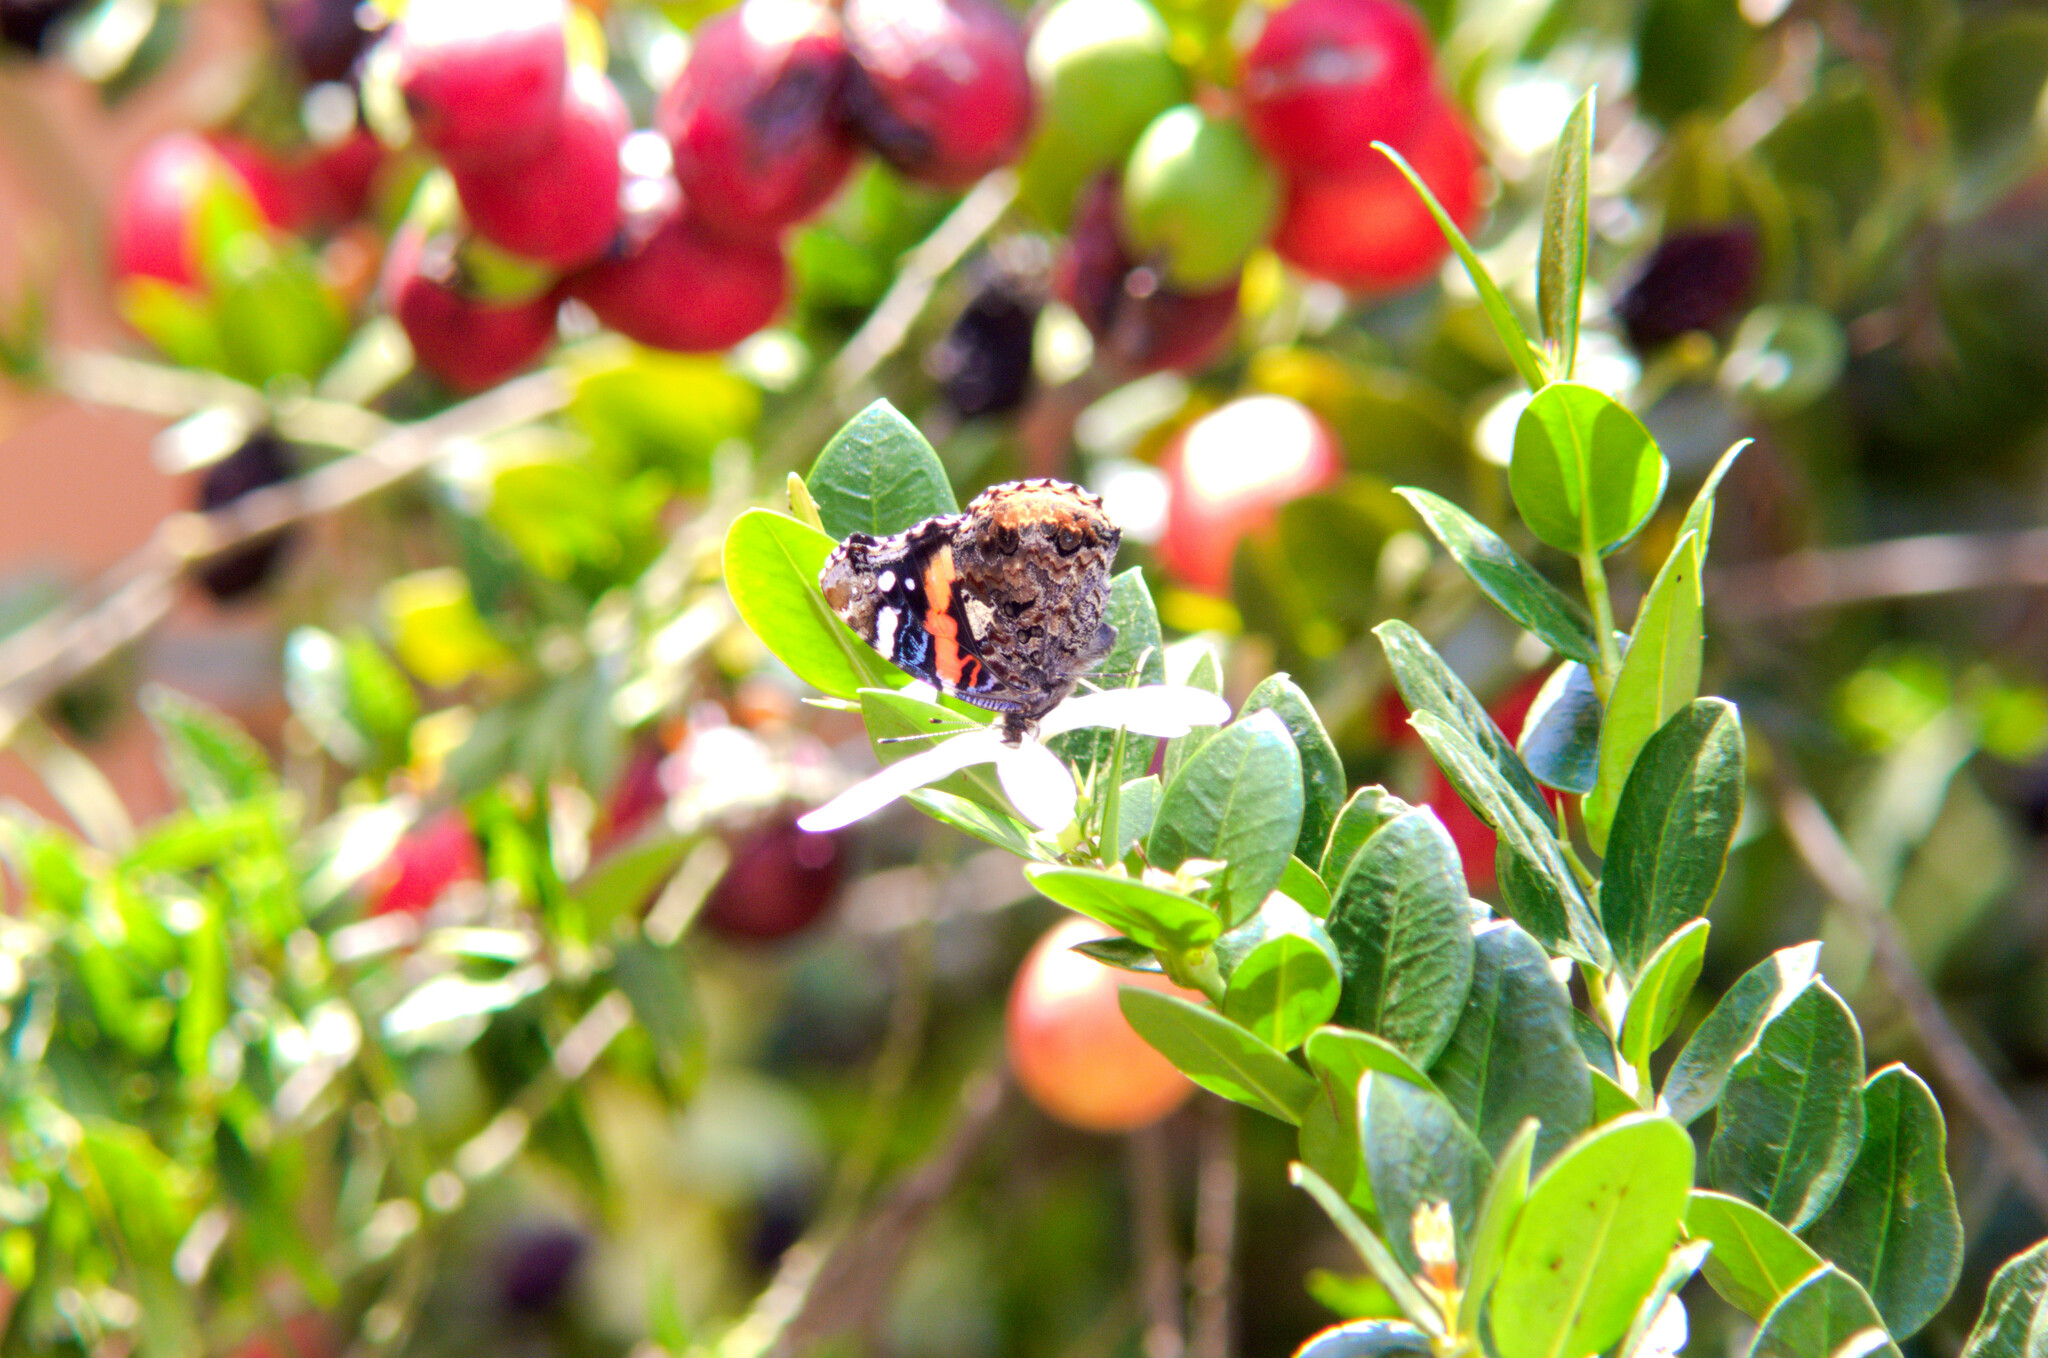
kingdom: Animalia
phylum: Arthropoda
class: Insecta
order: Lepidoptera
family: Nymphalidae
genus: Vanessa
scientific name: Vanessa atalanta
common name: Red admiral
